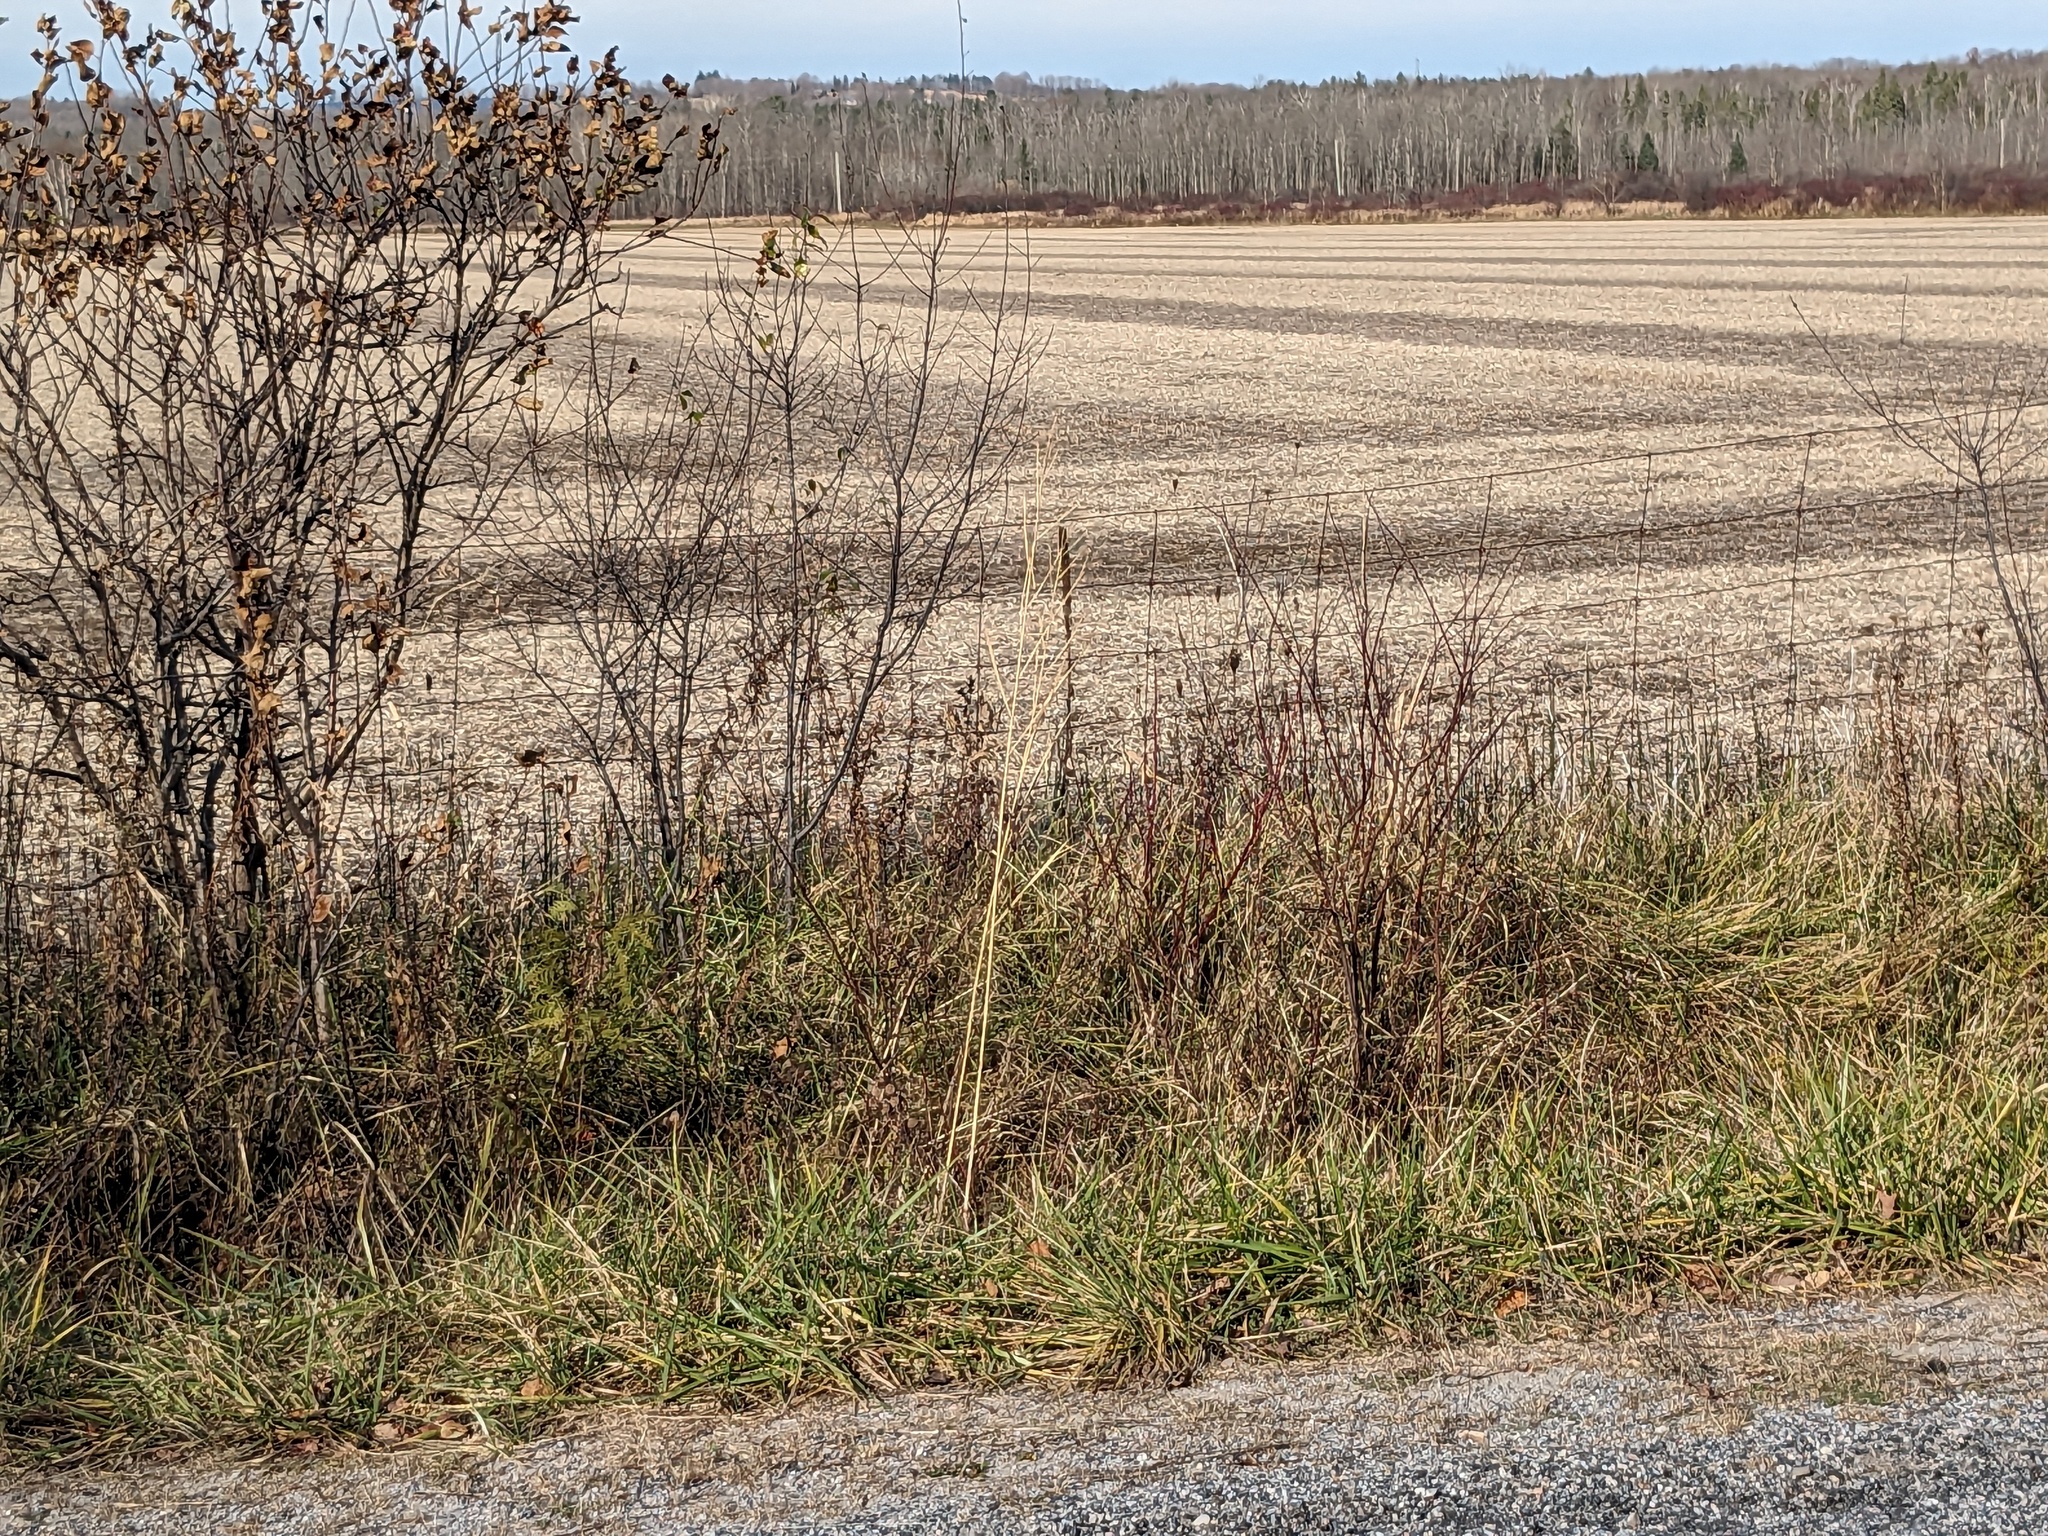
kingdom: Plantae
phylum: Tracheophyta
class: Liliopsida
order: Poales
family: Poaceae
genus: Phragmites
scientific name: Phragmites australis
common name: Common reed
